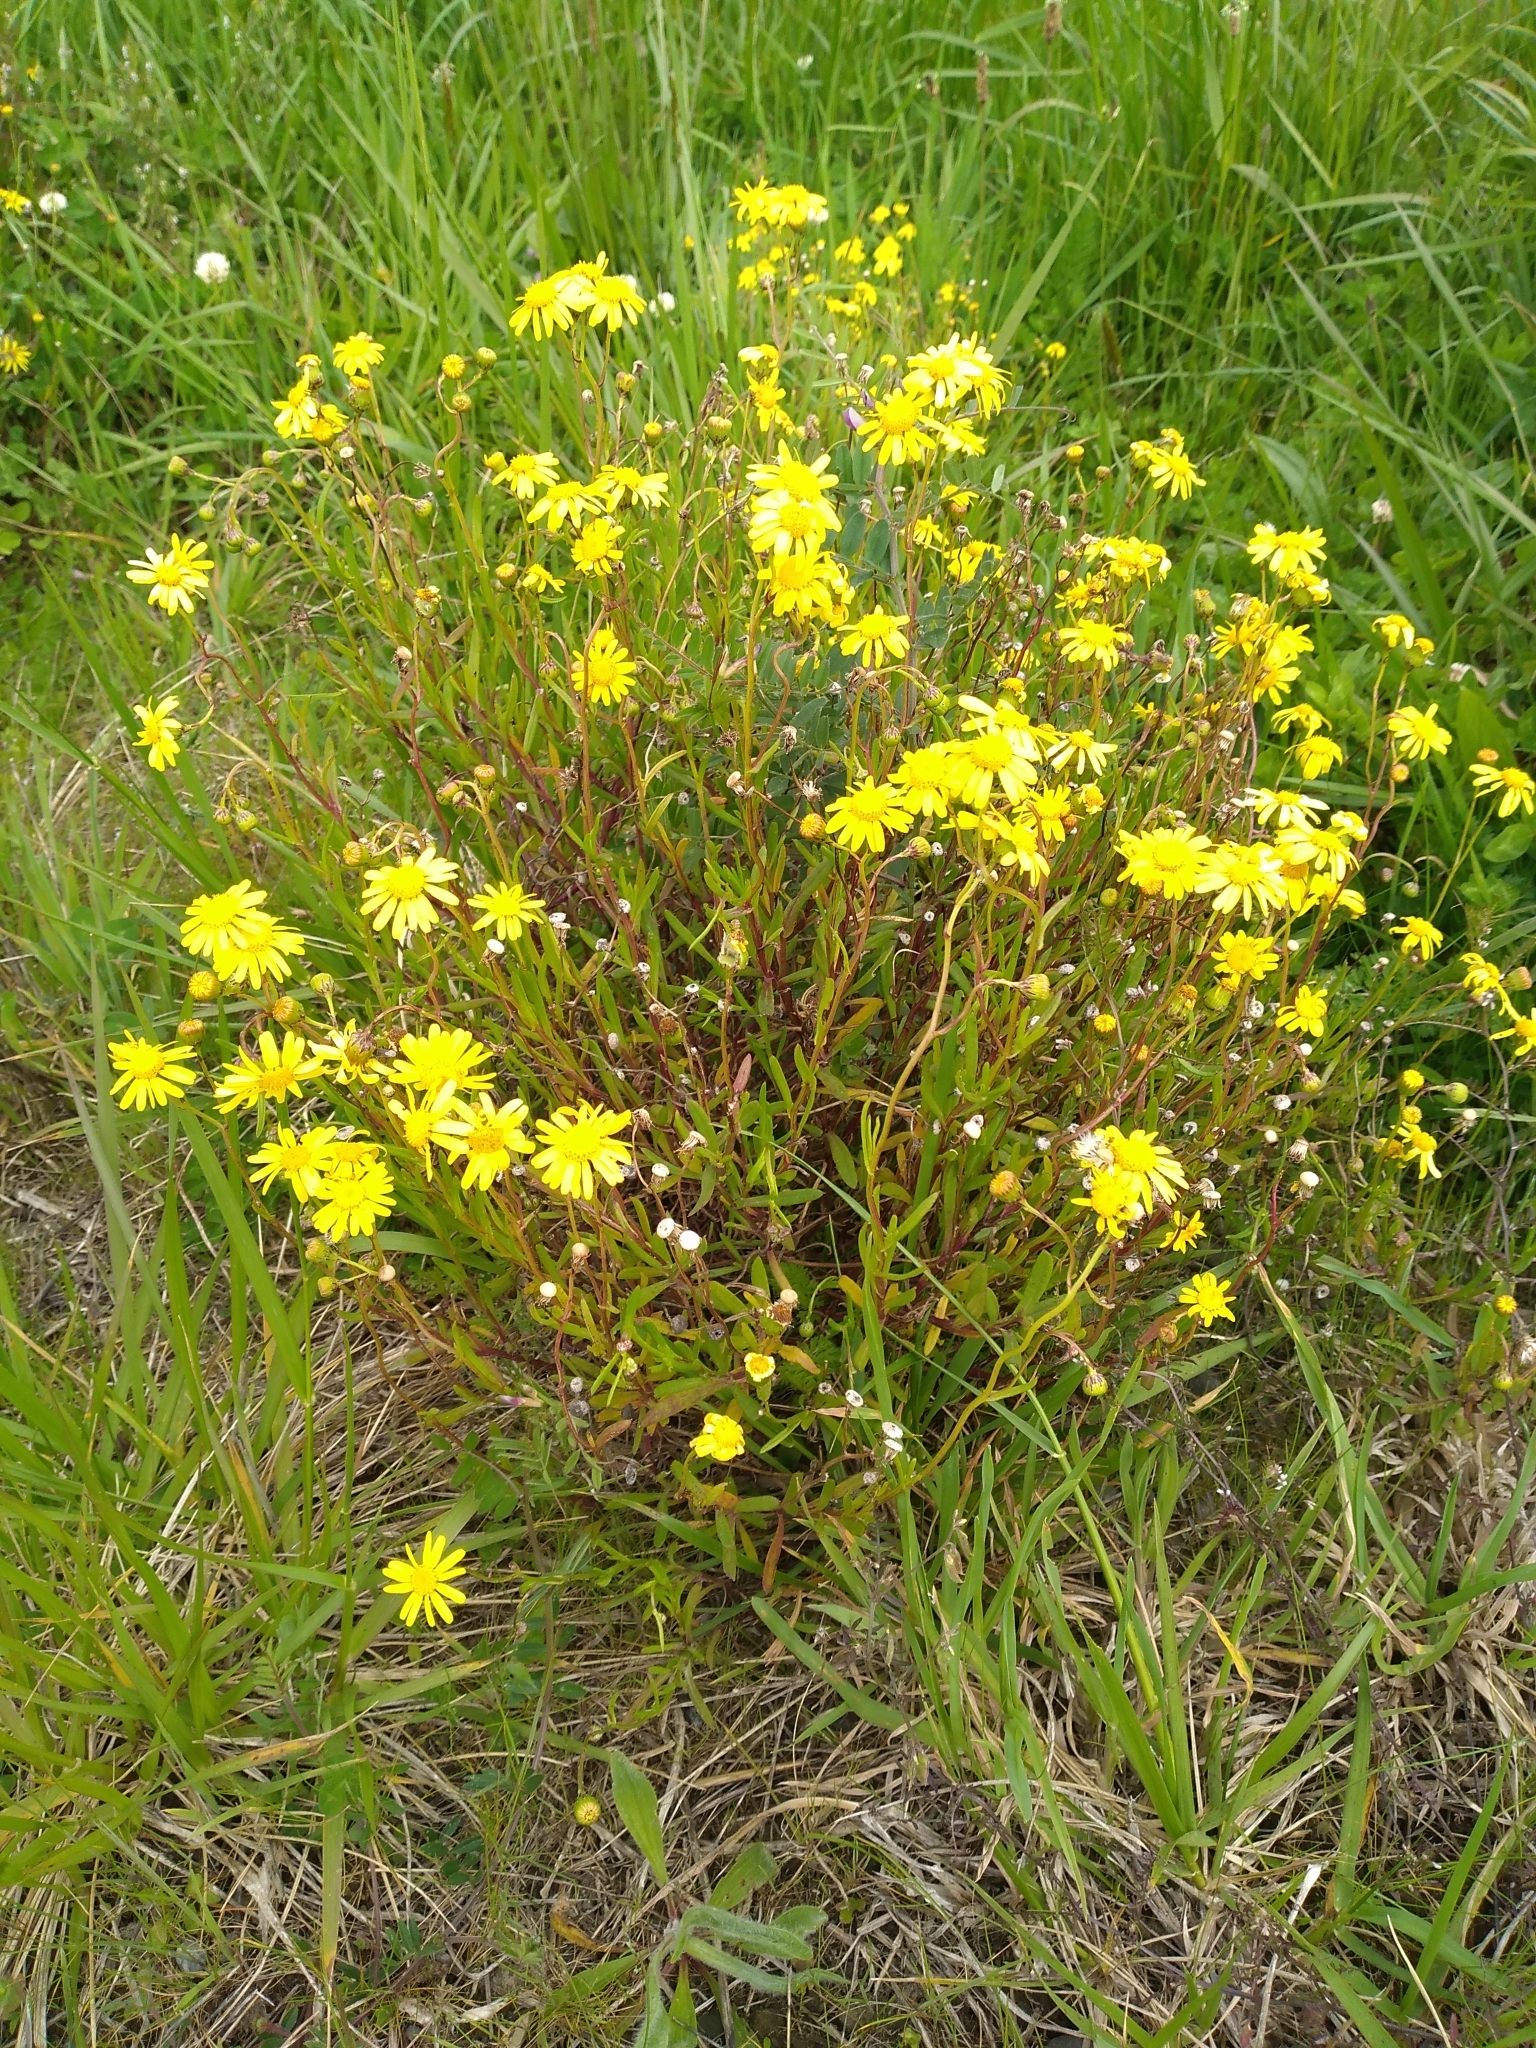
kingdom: Plantae
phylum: Tracheophyta
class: Magnoliopsida
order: Asterales
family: Asteraceae
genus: Senecio
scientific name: Senecio skirrhodon
